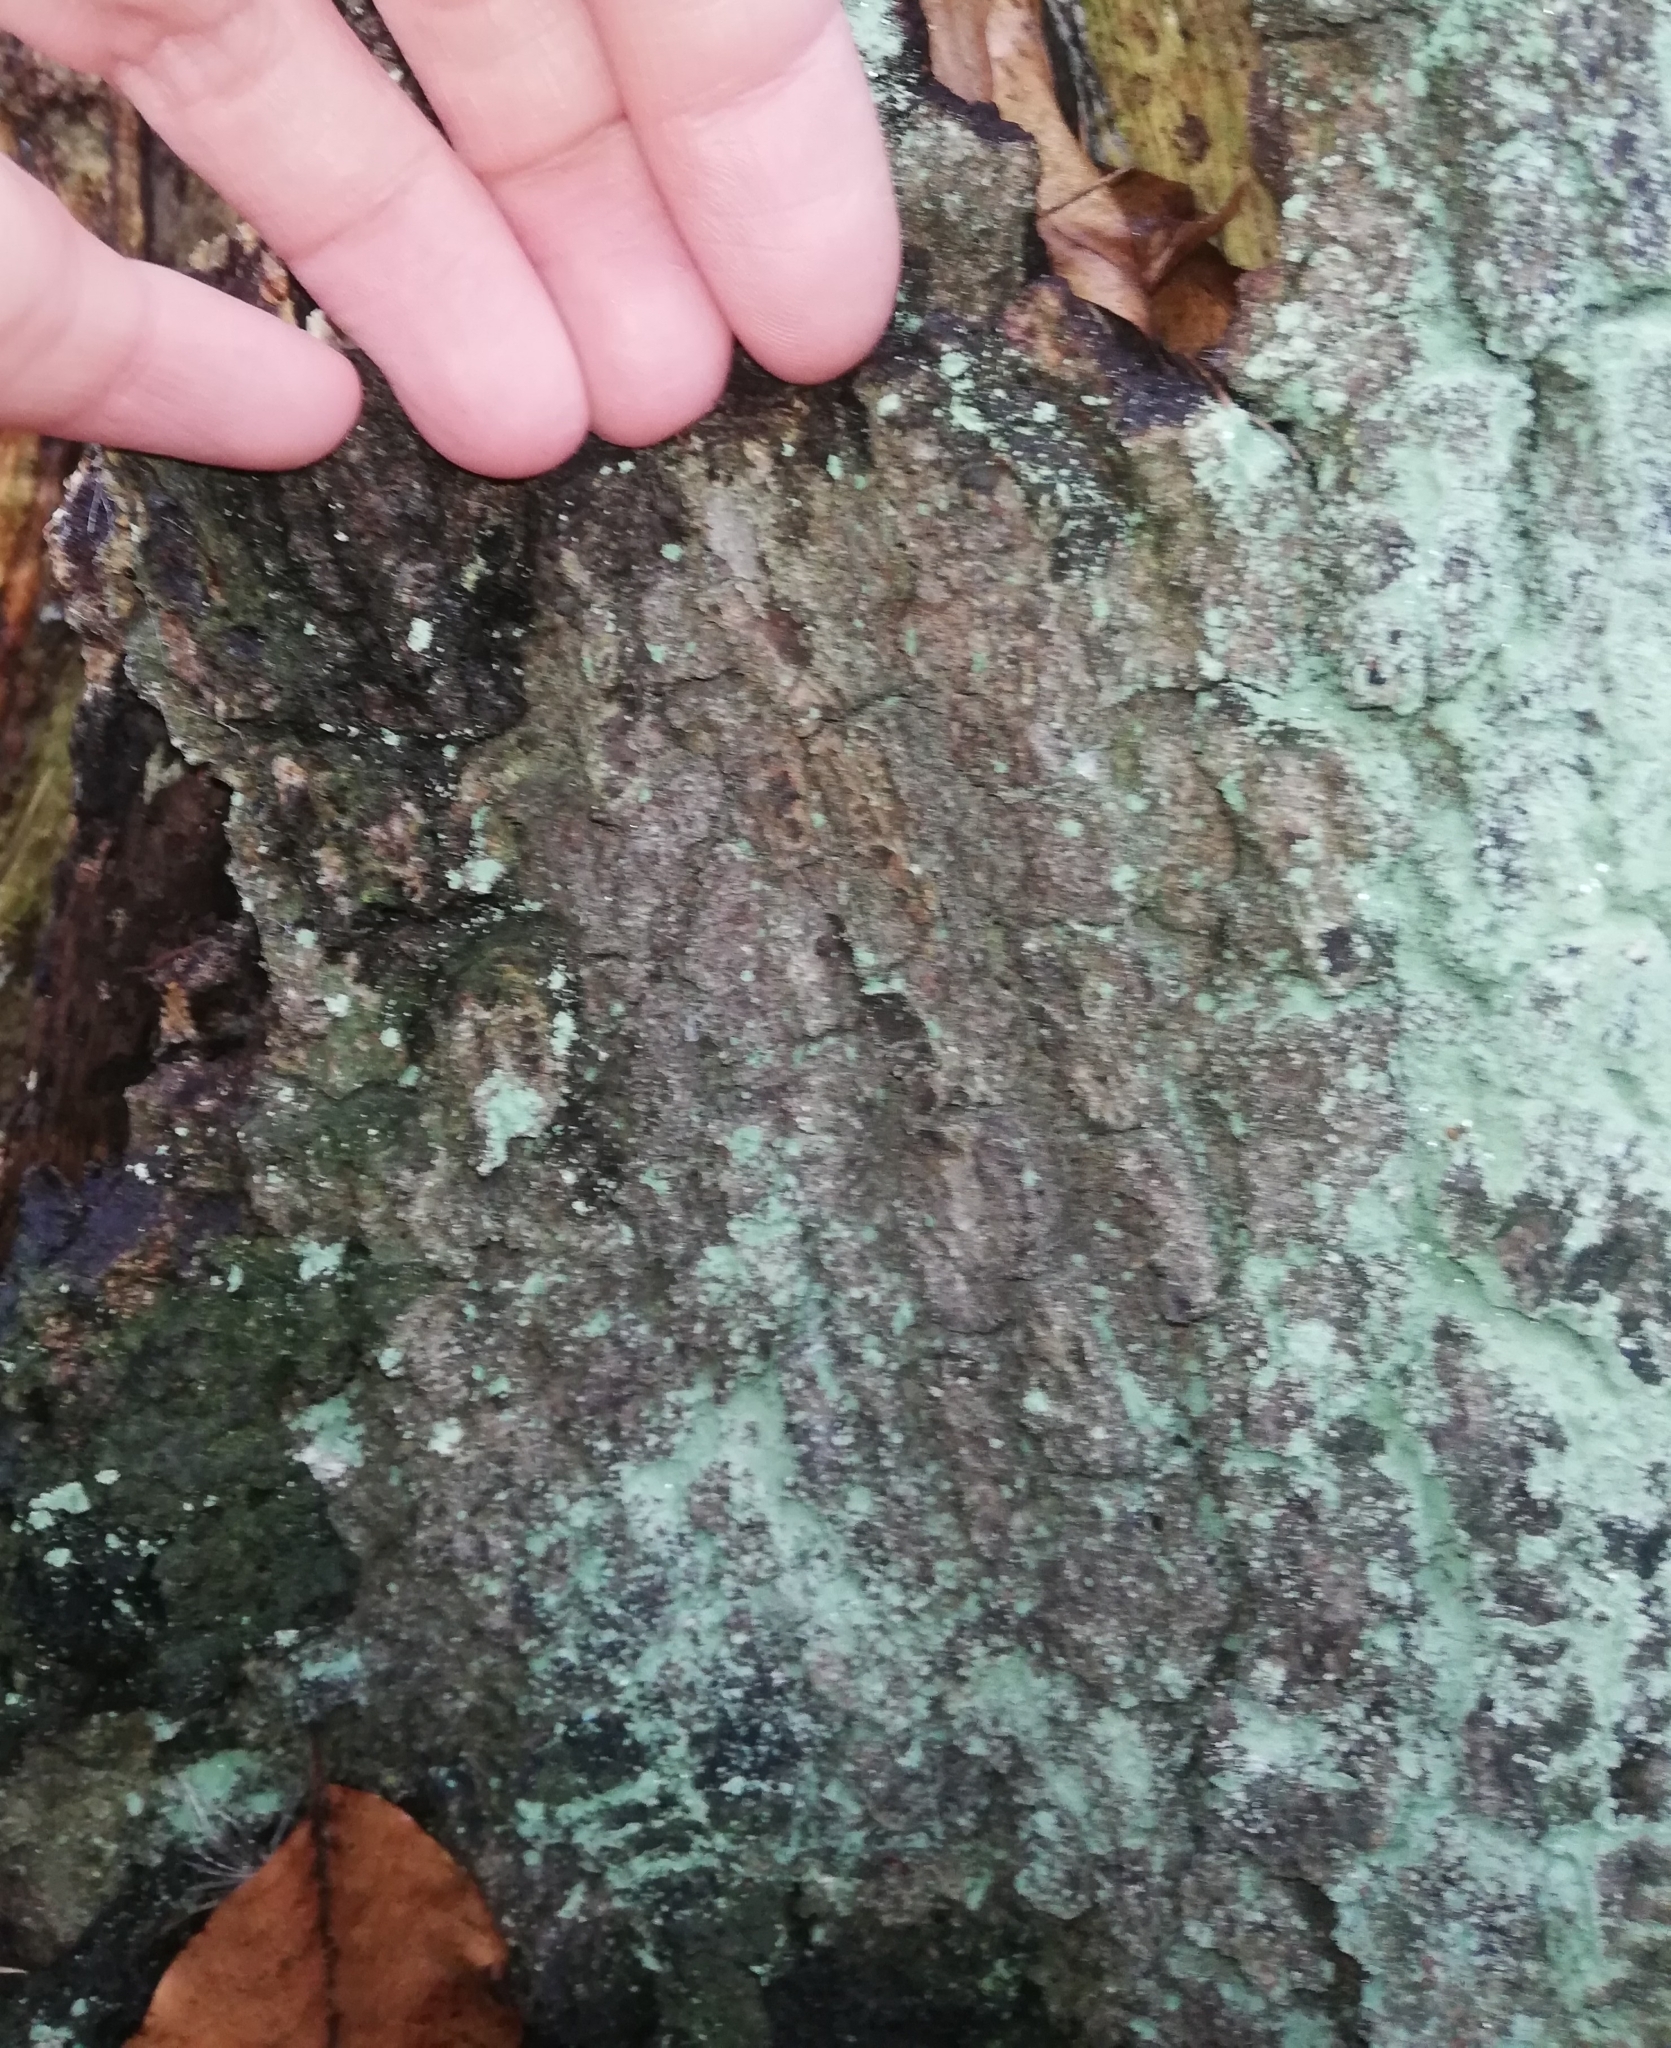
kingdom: Fungi
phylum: Basidiomycota
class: Agaricomycetes
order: Agaricales
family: Mycenaceae
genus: Panellus
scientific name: Panellus stipticus
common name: Bitter oysterling
